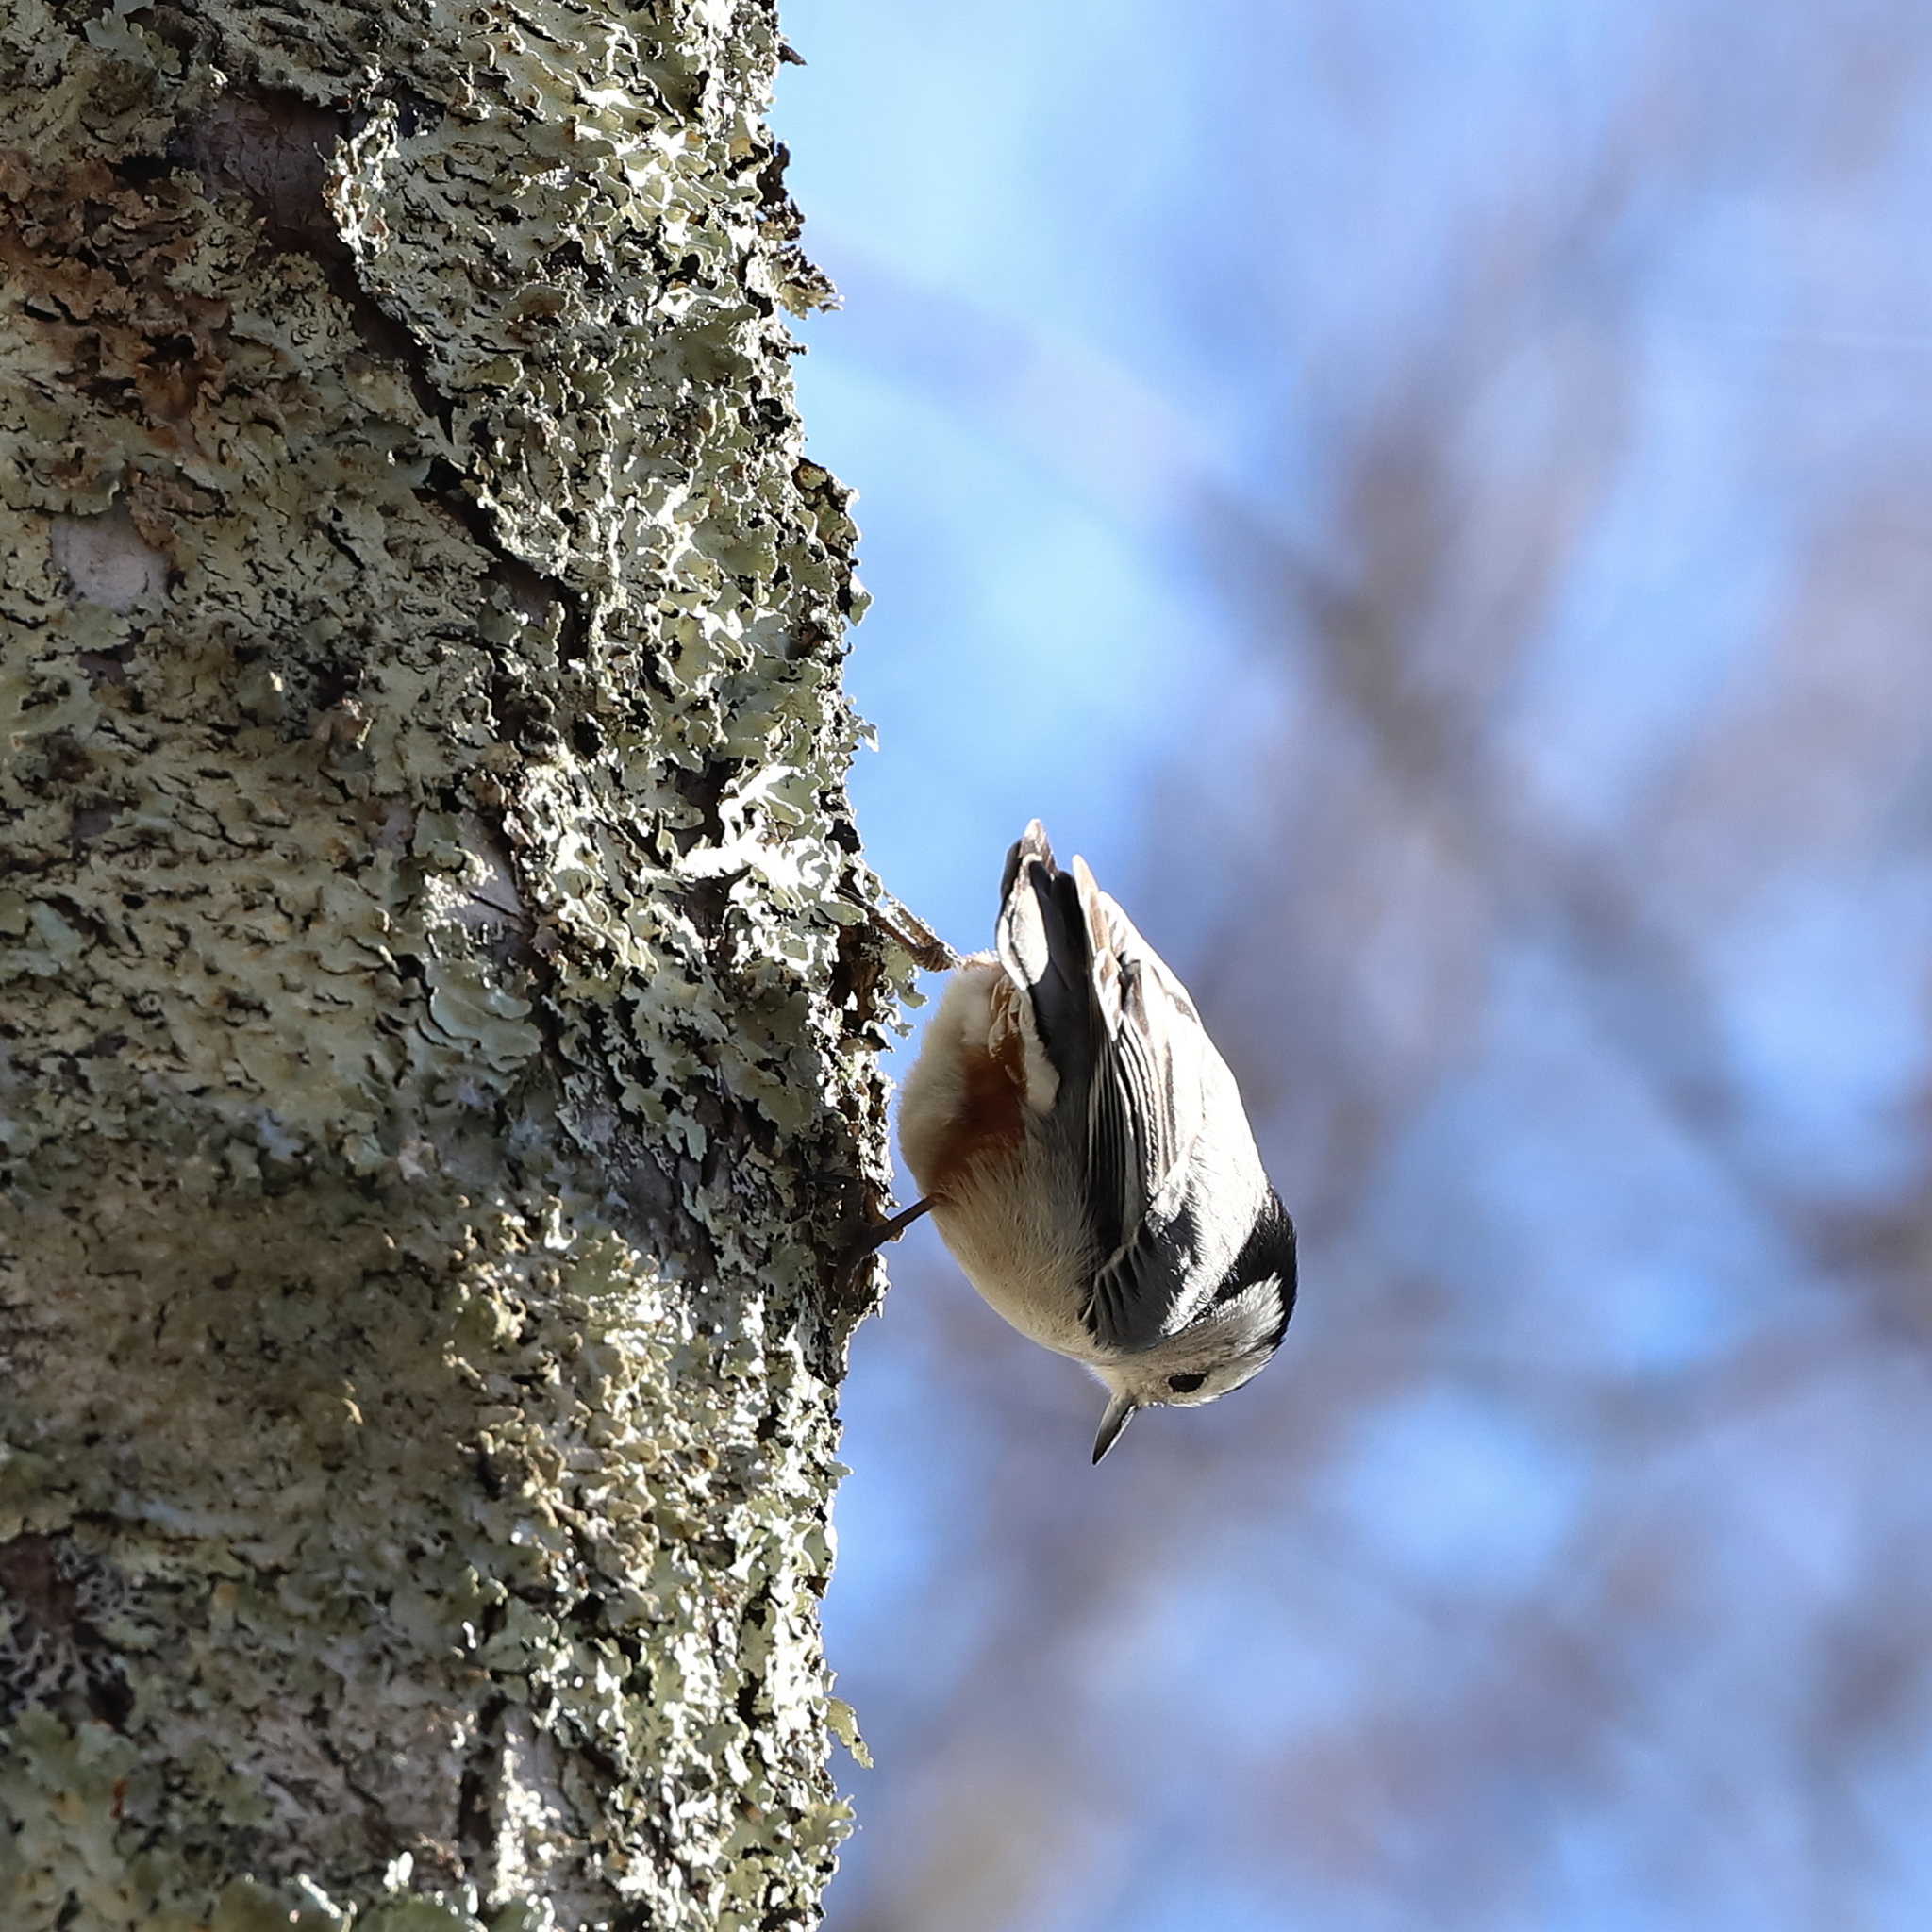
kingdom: Animalia
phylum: Chordata
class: Aves
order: Passeriformes
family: Sittidae
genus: Sitta
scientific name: Sitta carolinensis
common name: White-breasted nuthatch
